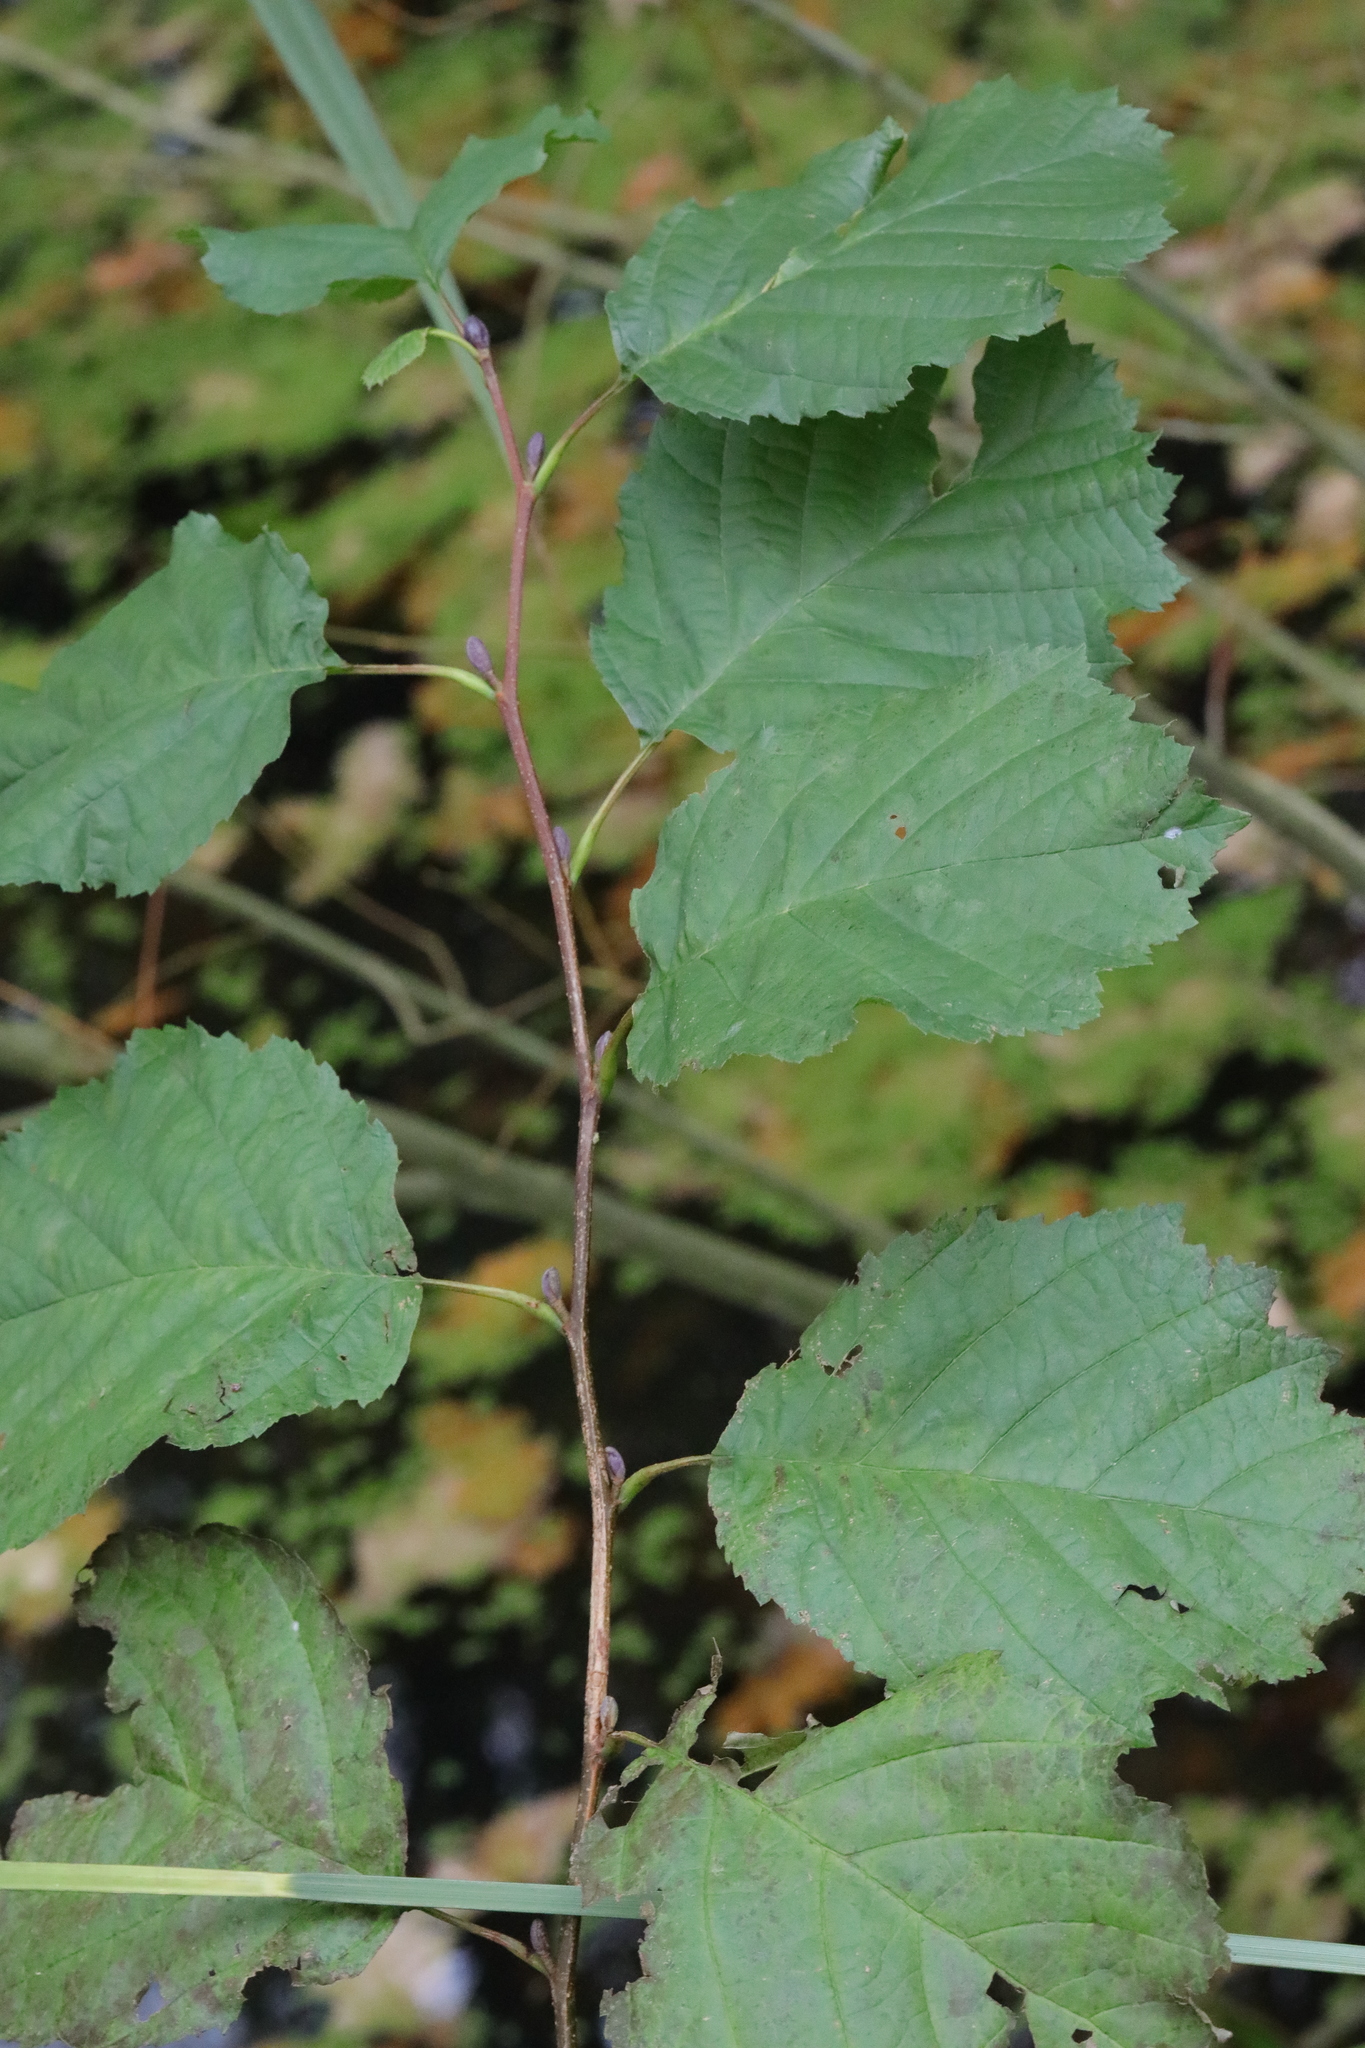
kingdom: Plantae
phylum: Tracheophyta
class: Magnoliopsida
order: Fagales
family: Betulaceae
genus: Corylus
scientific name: Corylus avellana
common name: European hazel
